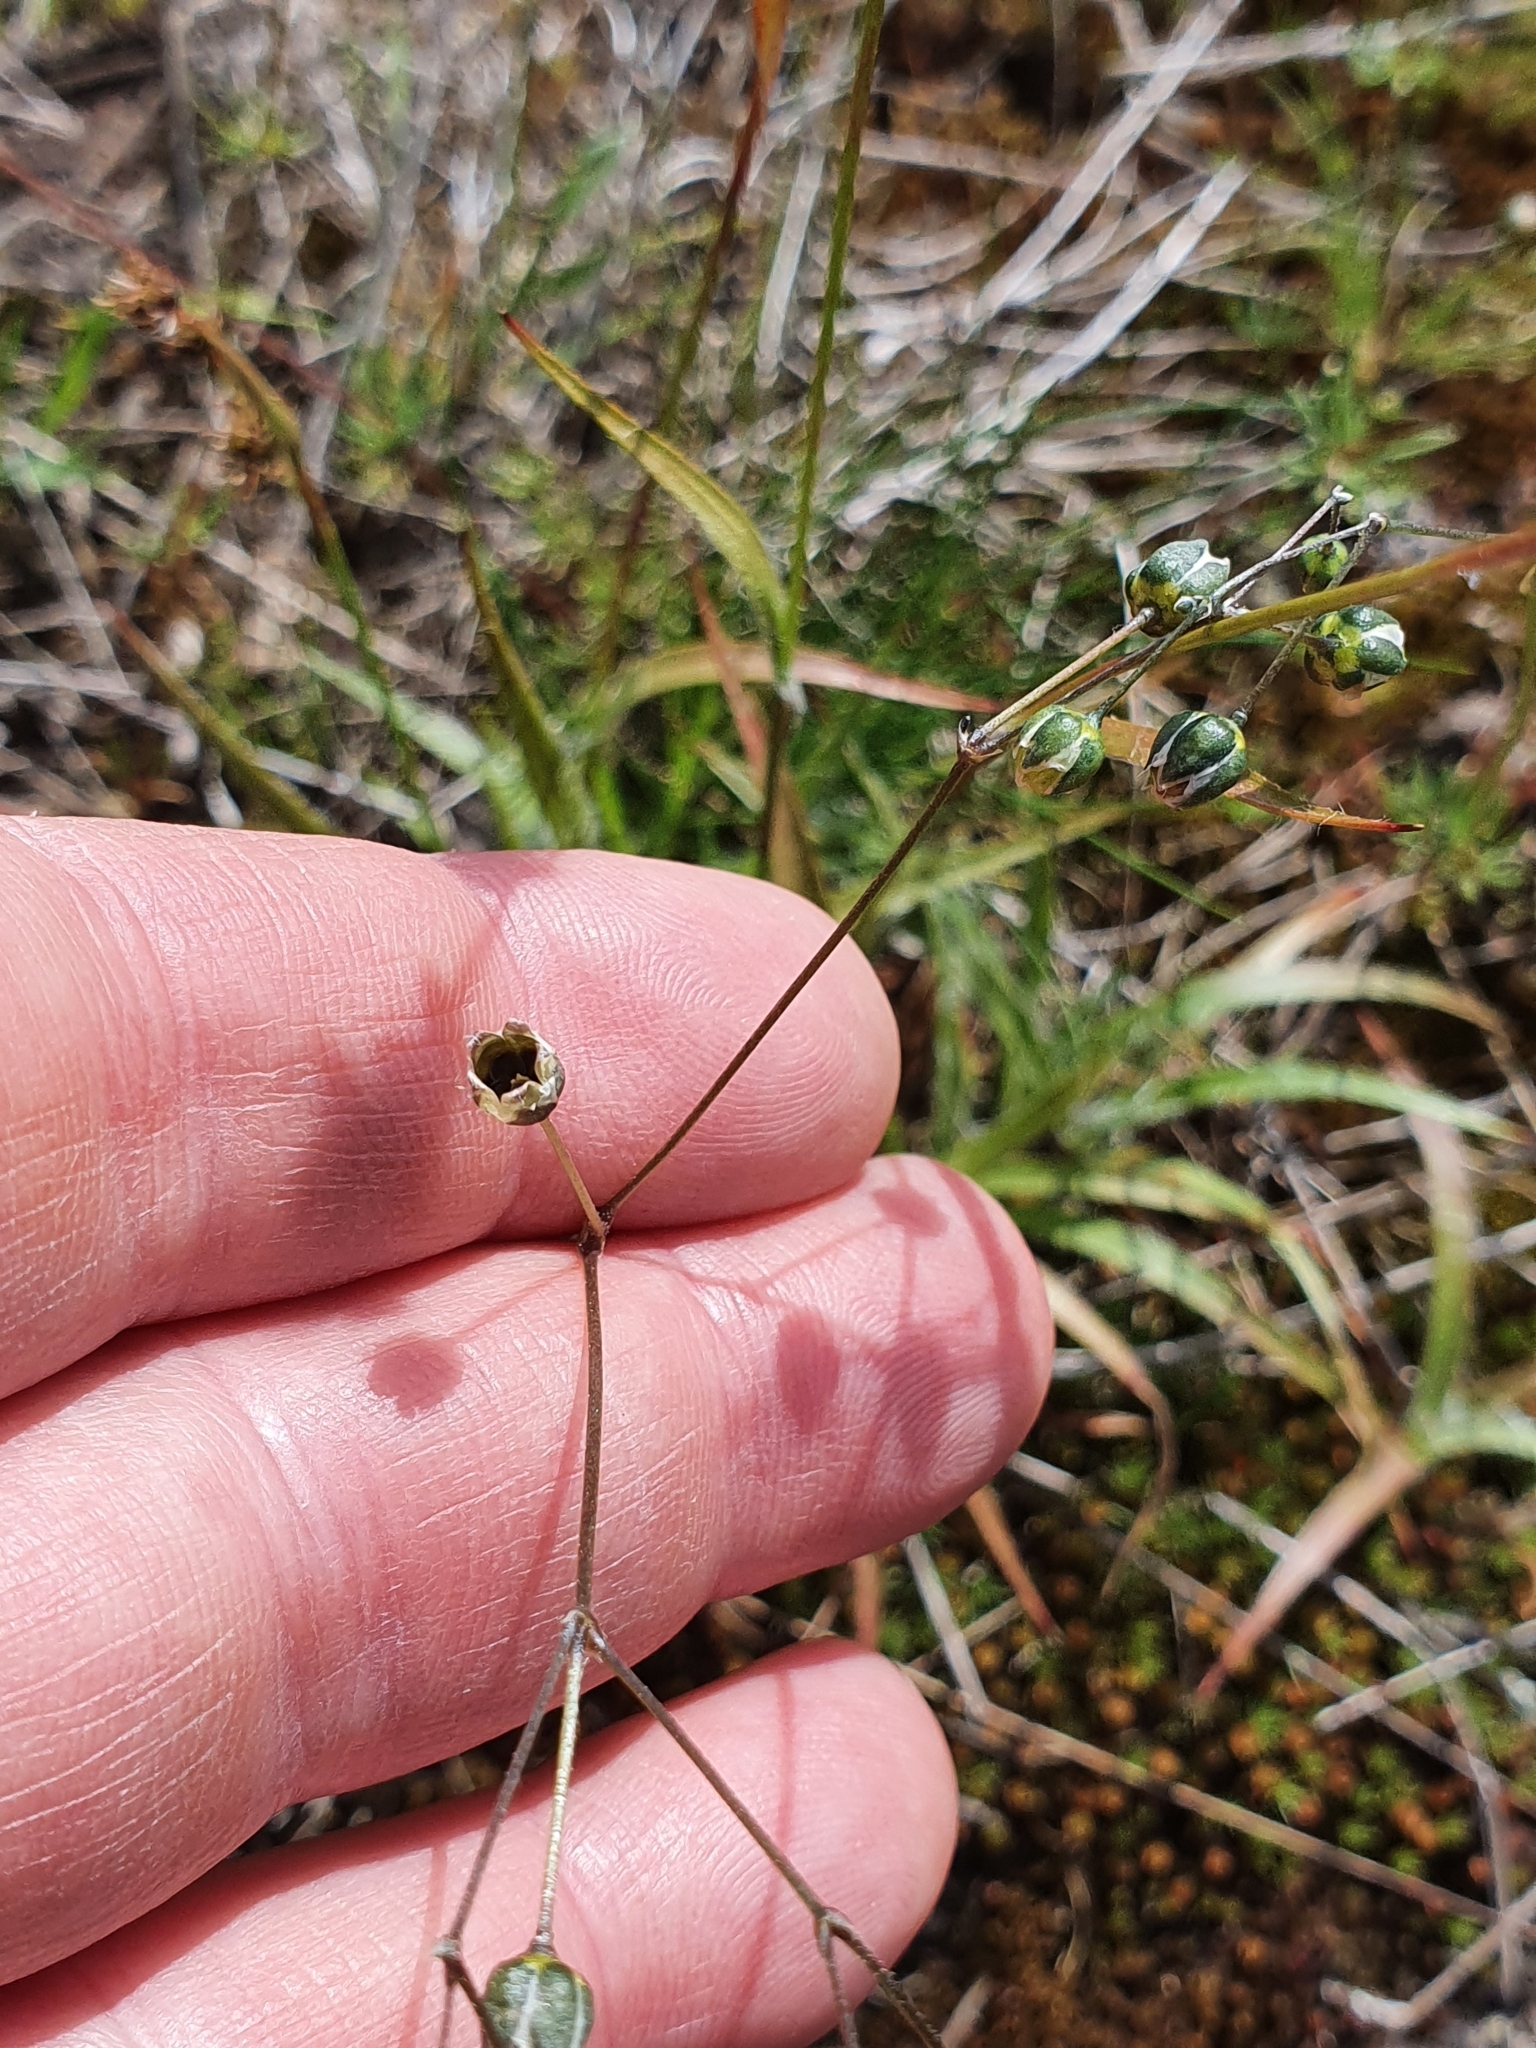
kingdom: Plantae
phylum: Tracheophyta
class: Magnoliopsida
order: Caryophyllales
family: Caryophyllaceae
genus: Spergula
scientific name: Spergula morisonii
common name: Pearlwort spurrey
